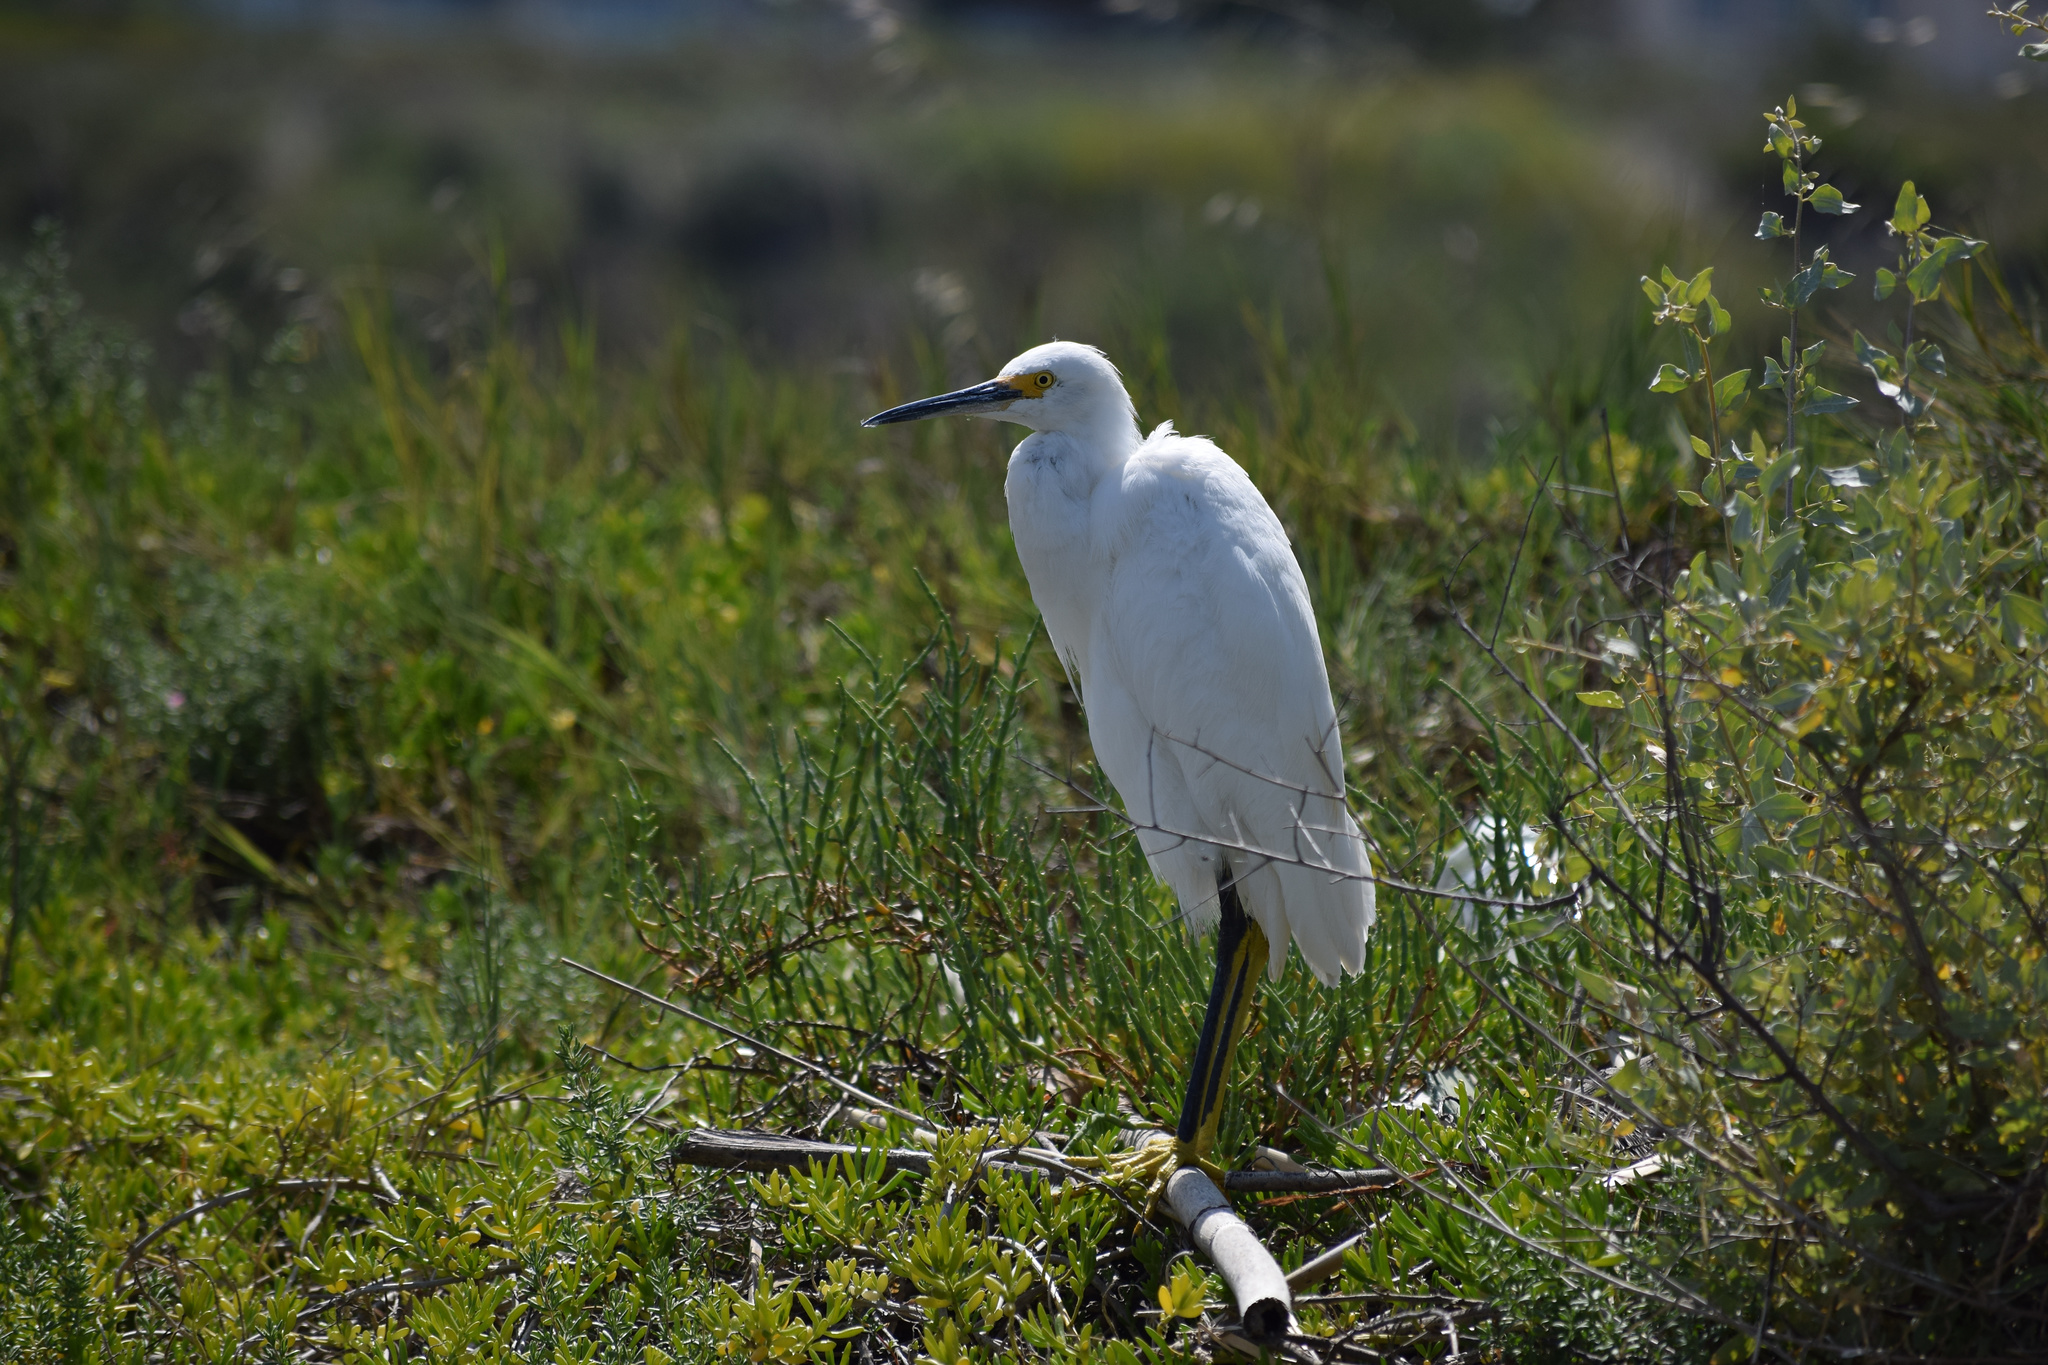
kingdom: Animalia
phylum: Chordata
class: Aves
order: Pelecaniformes
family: Ardeidae
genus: Egretta
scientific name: Egretta thula
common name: Snowy egret
